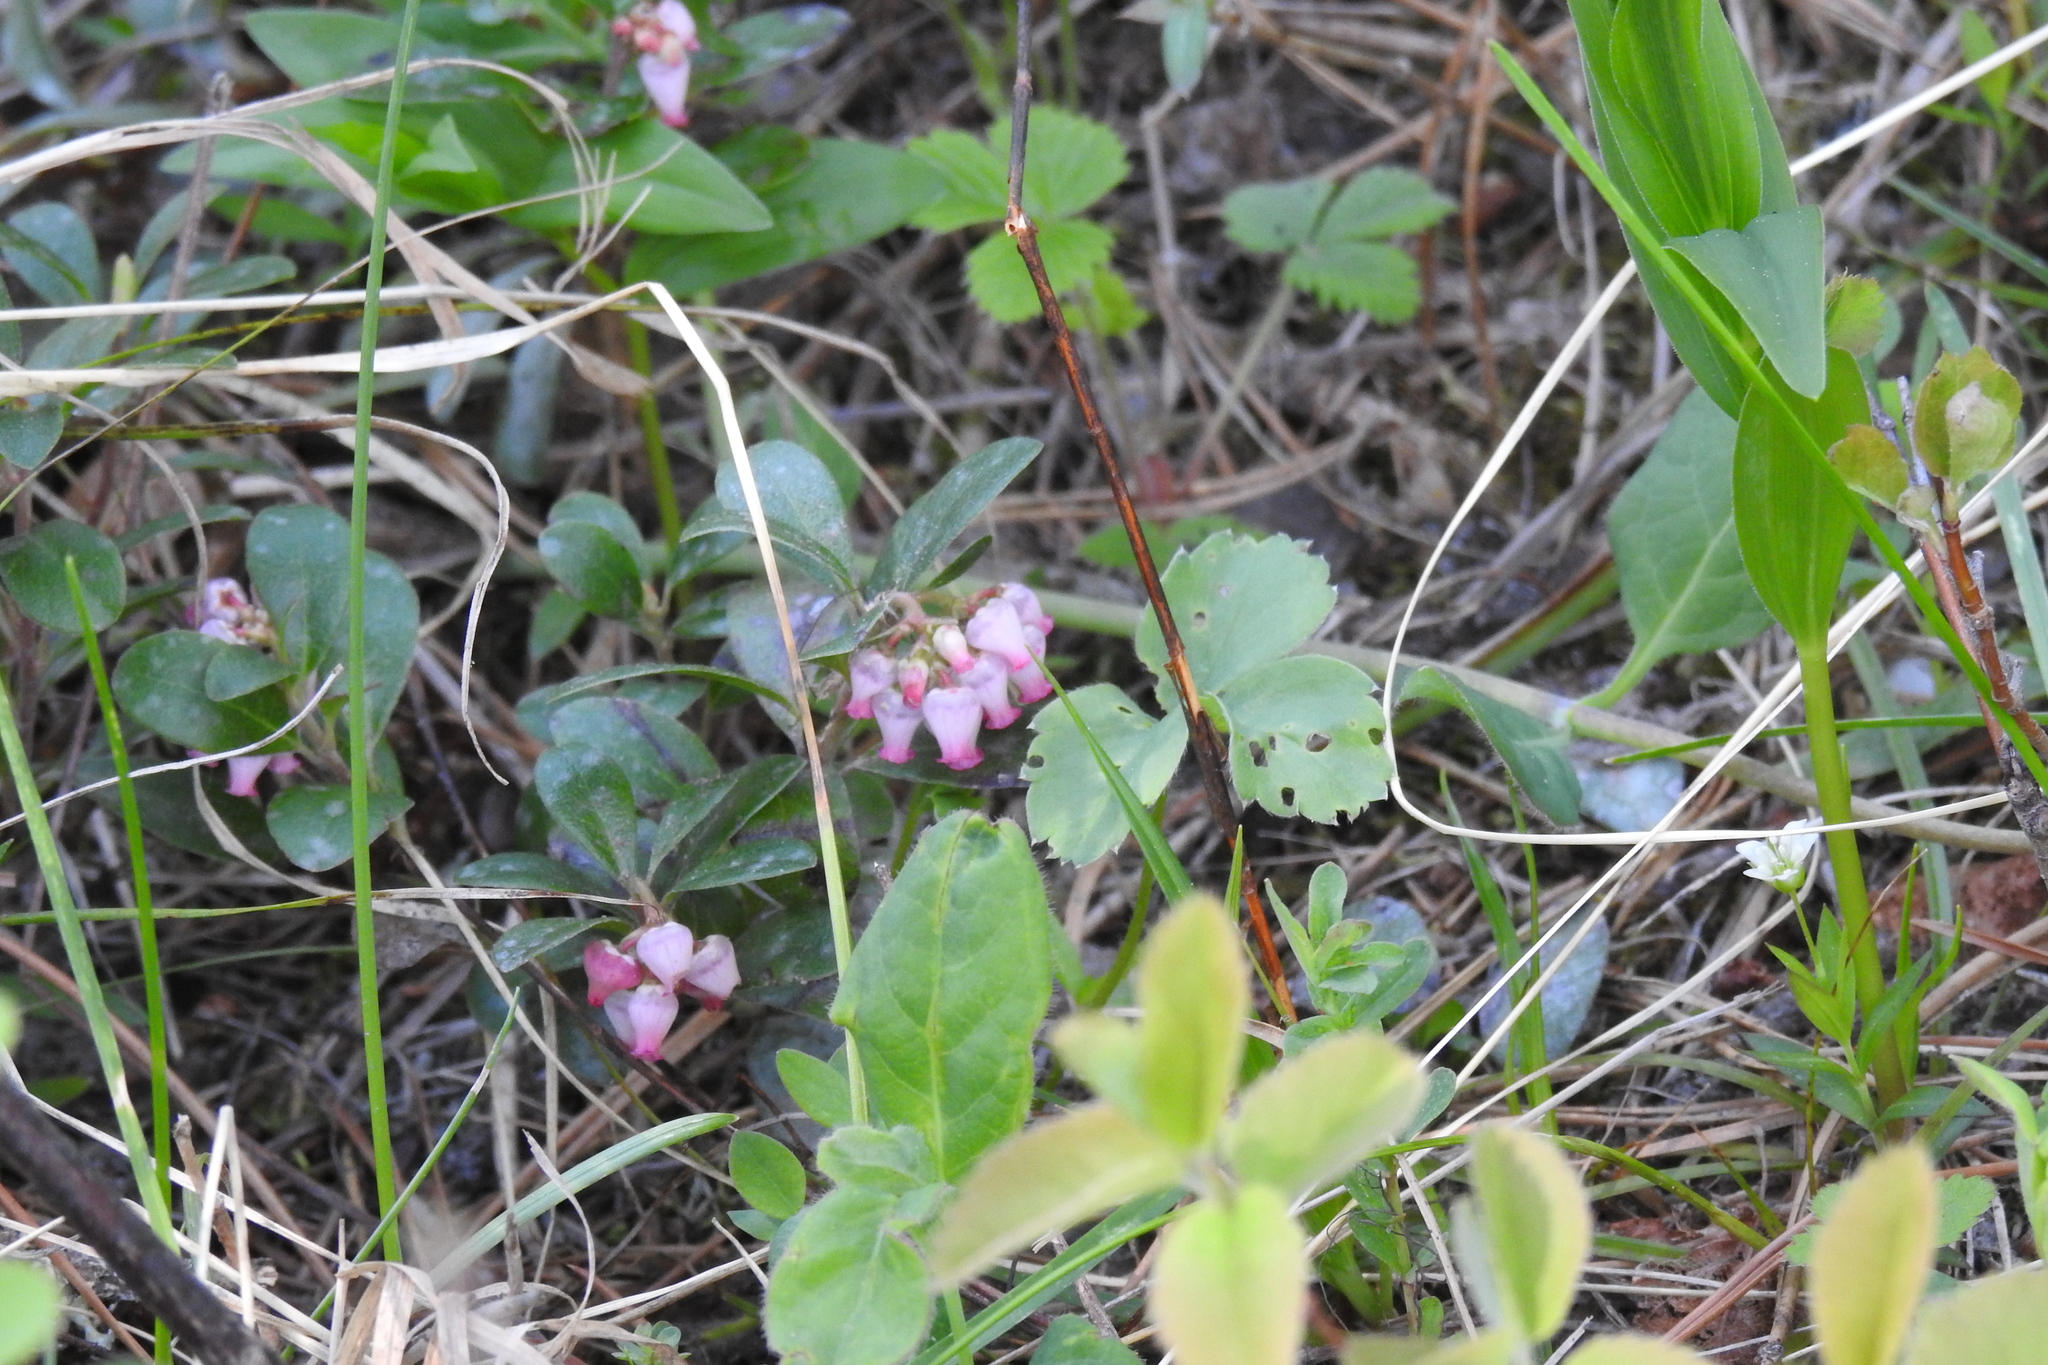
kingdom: Plantae
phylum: Tracheophyta
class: Magnoliopsida
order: Ericales
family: Ericaceae
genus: Arctostaphylos
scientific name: Arctostaphylos uva-ursi
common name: Bearberry
